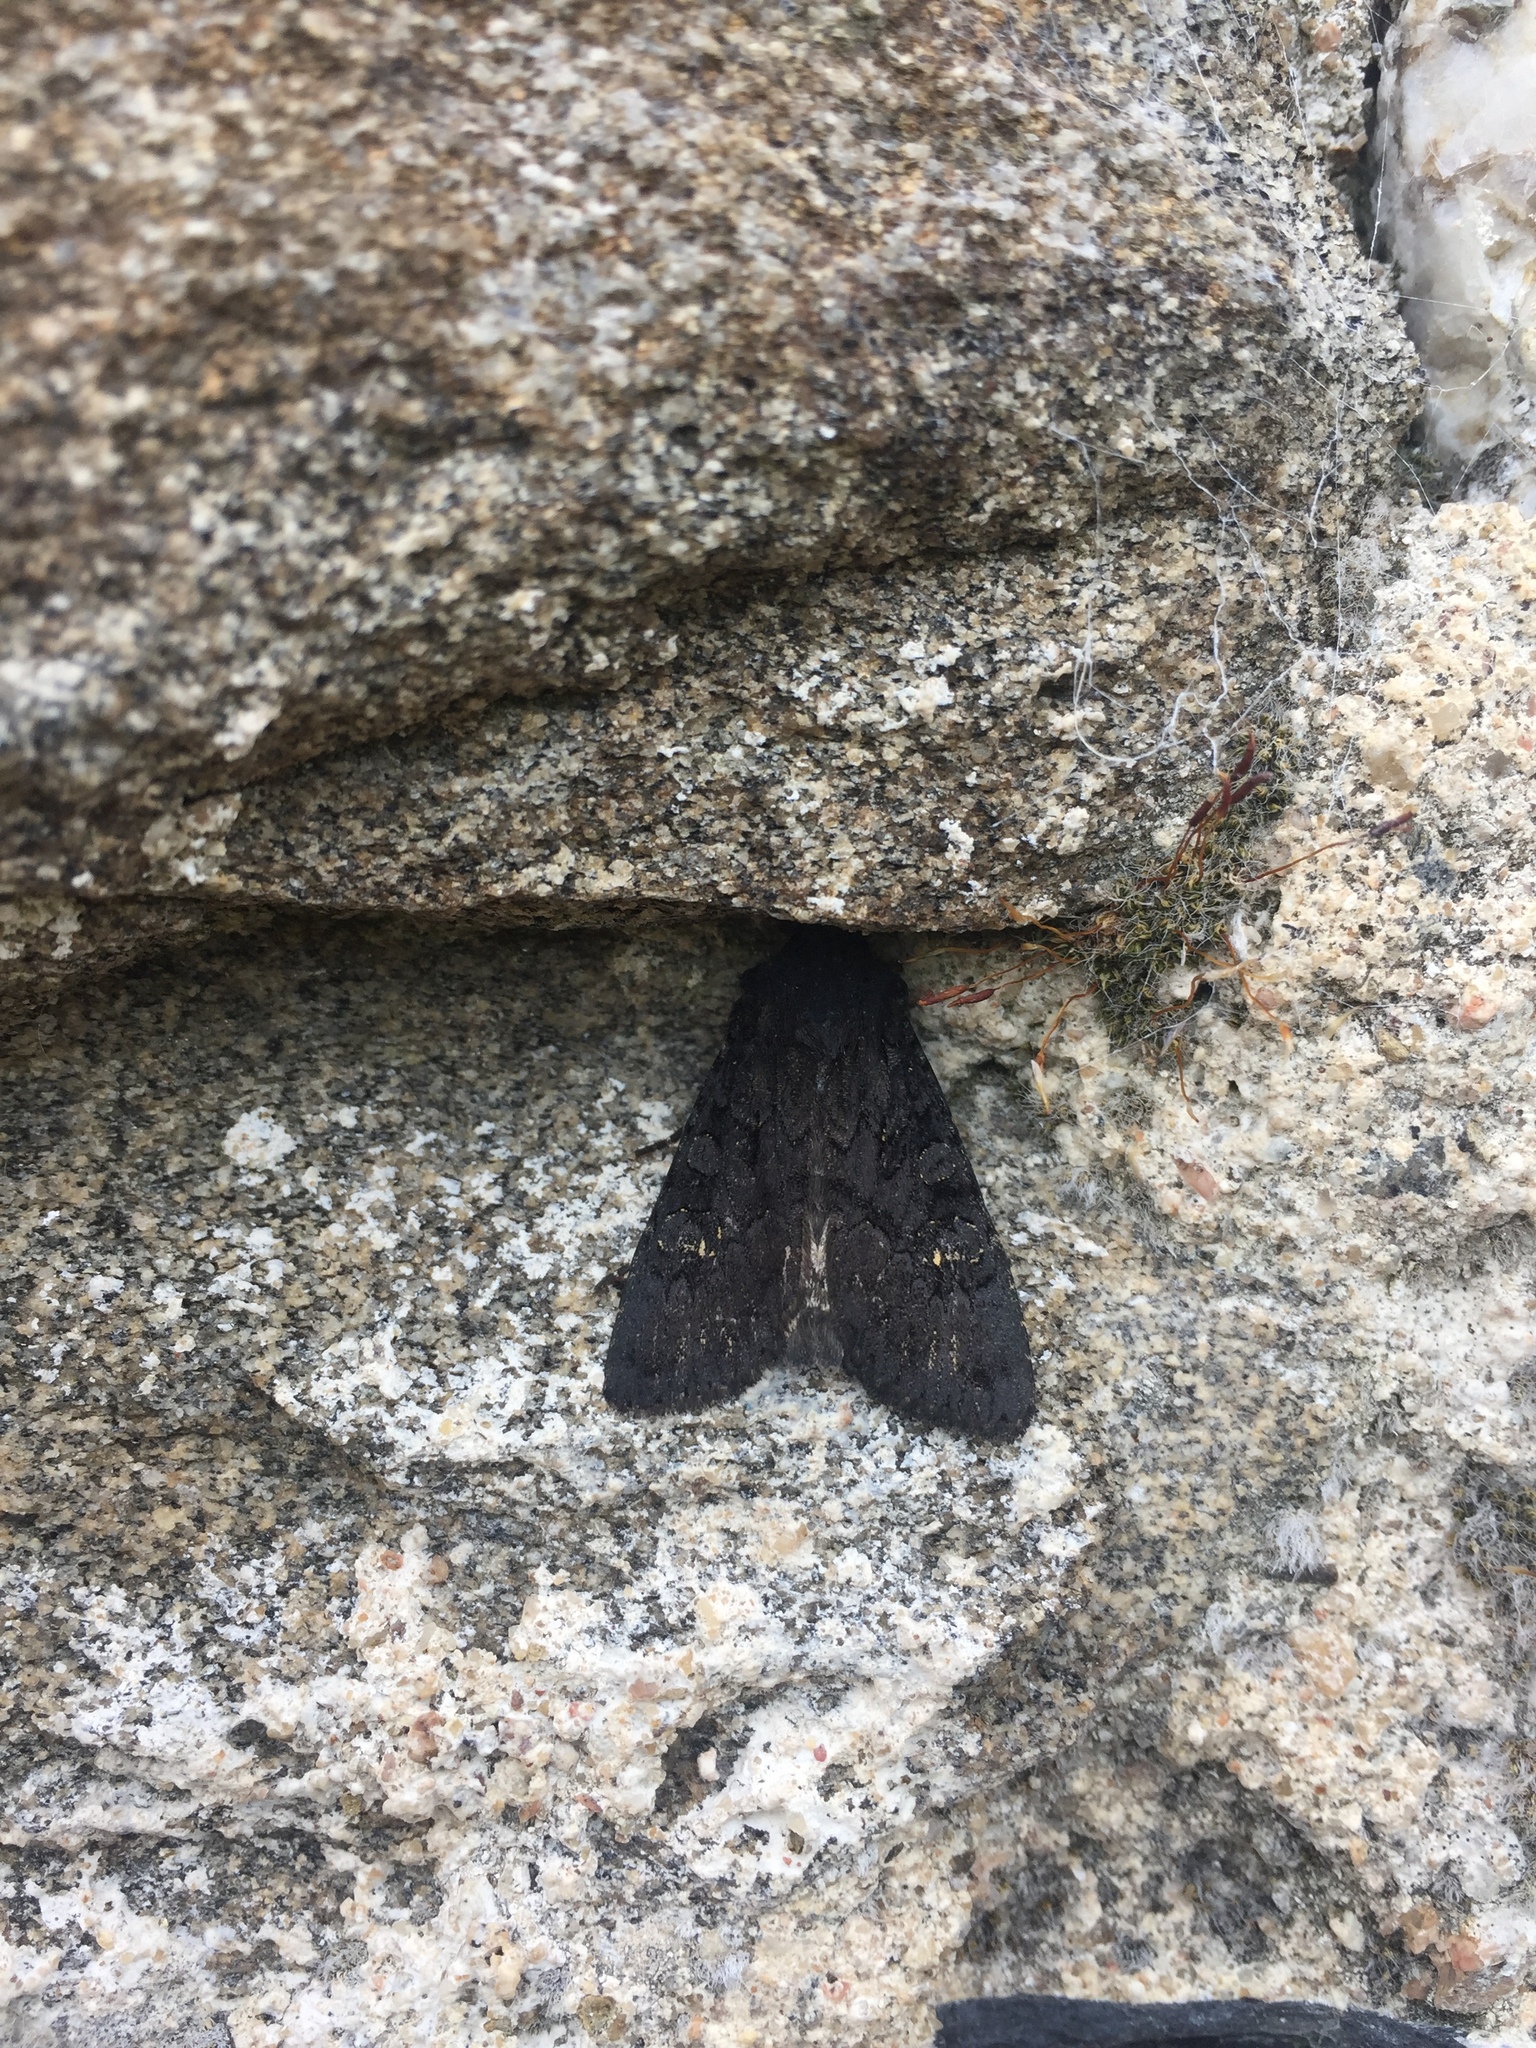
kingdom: Animalia
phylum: Arthropoda
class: Insecta
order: Lepidoptera
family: Noctuidae
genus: Aporophyla
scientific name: Aporophyla nigra
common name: Black rustic
